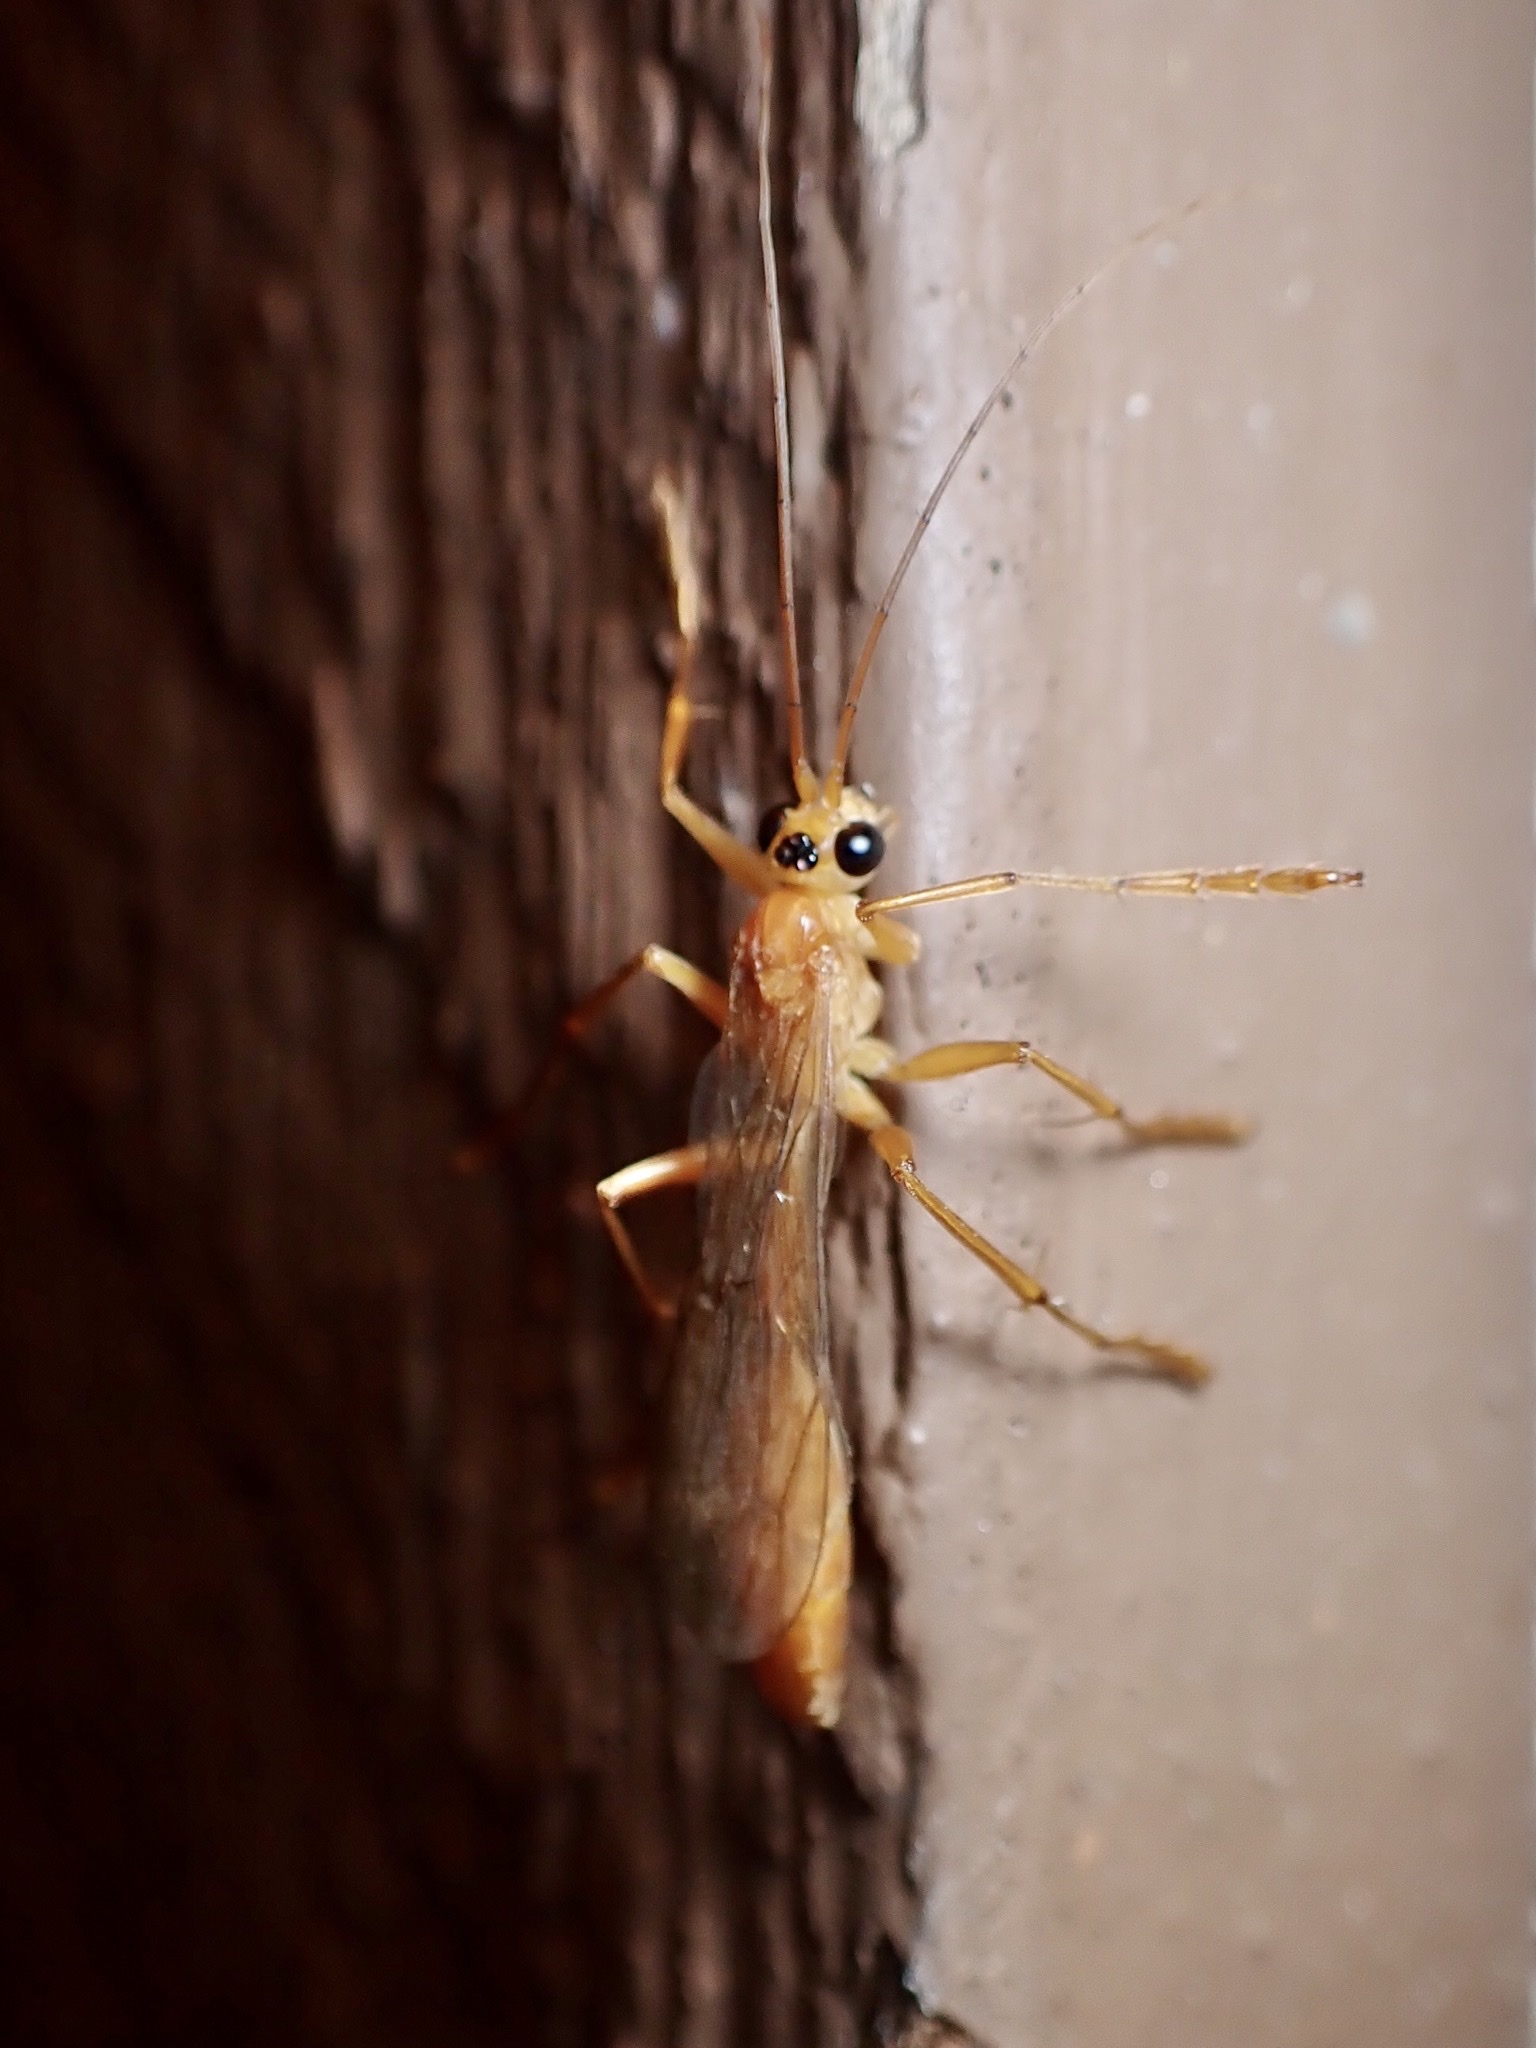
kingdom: Animalia
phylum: Arthropoda
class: Insecta
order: Hymenoptera
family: Rhopalosomatidae
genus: Rhopalosoma
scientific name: Rhopalosoma nearcticum
